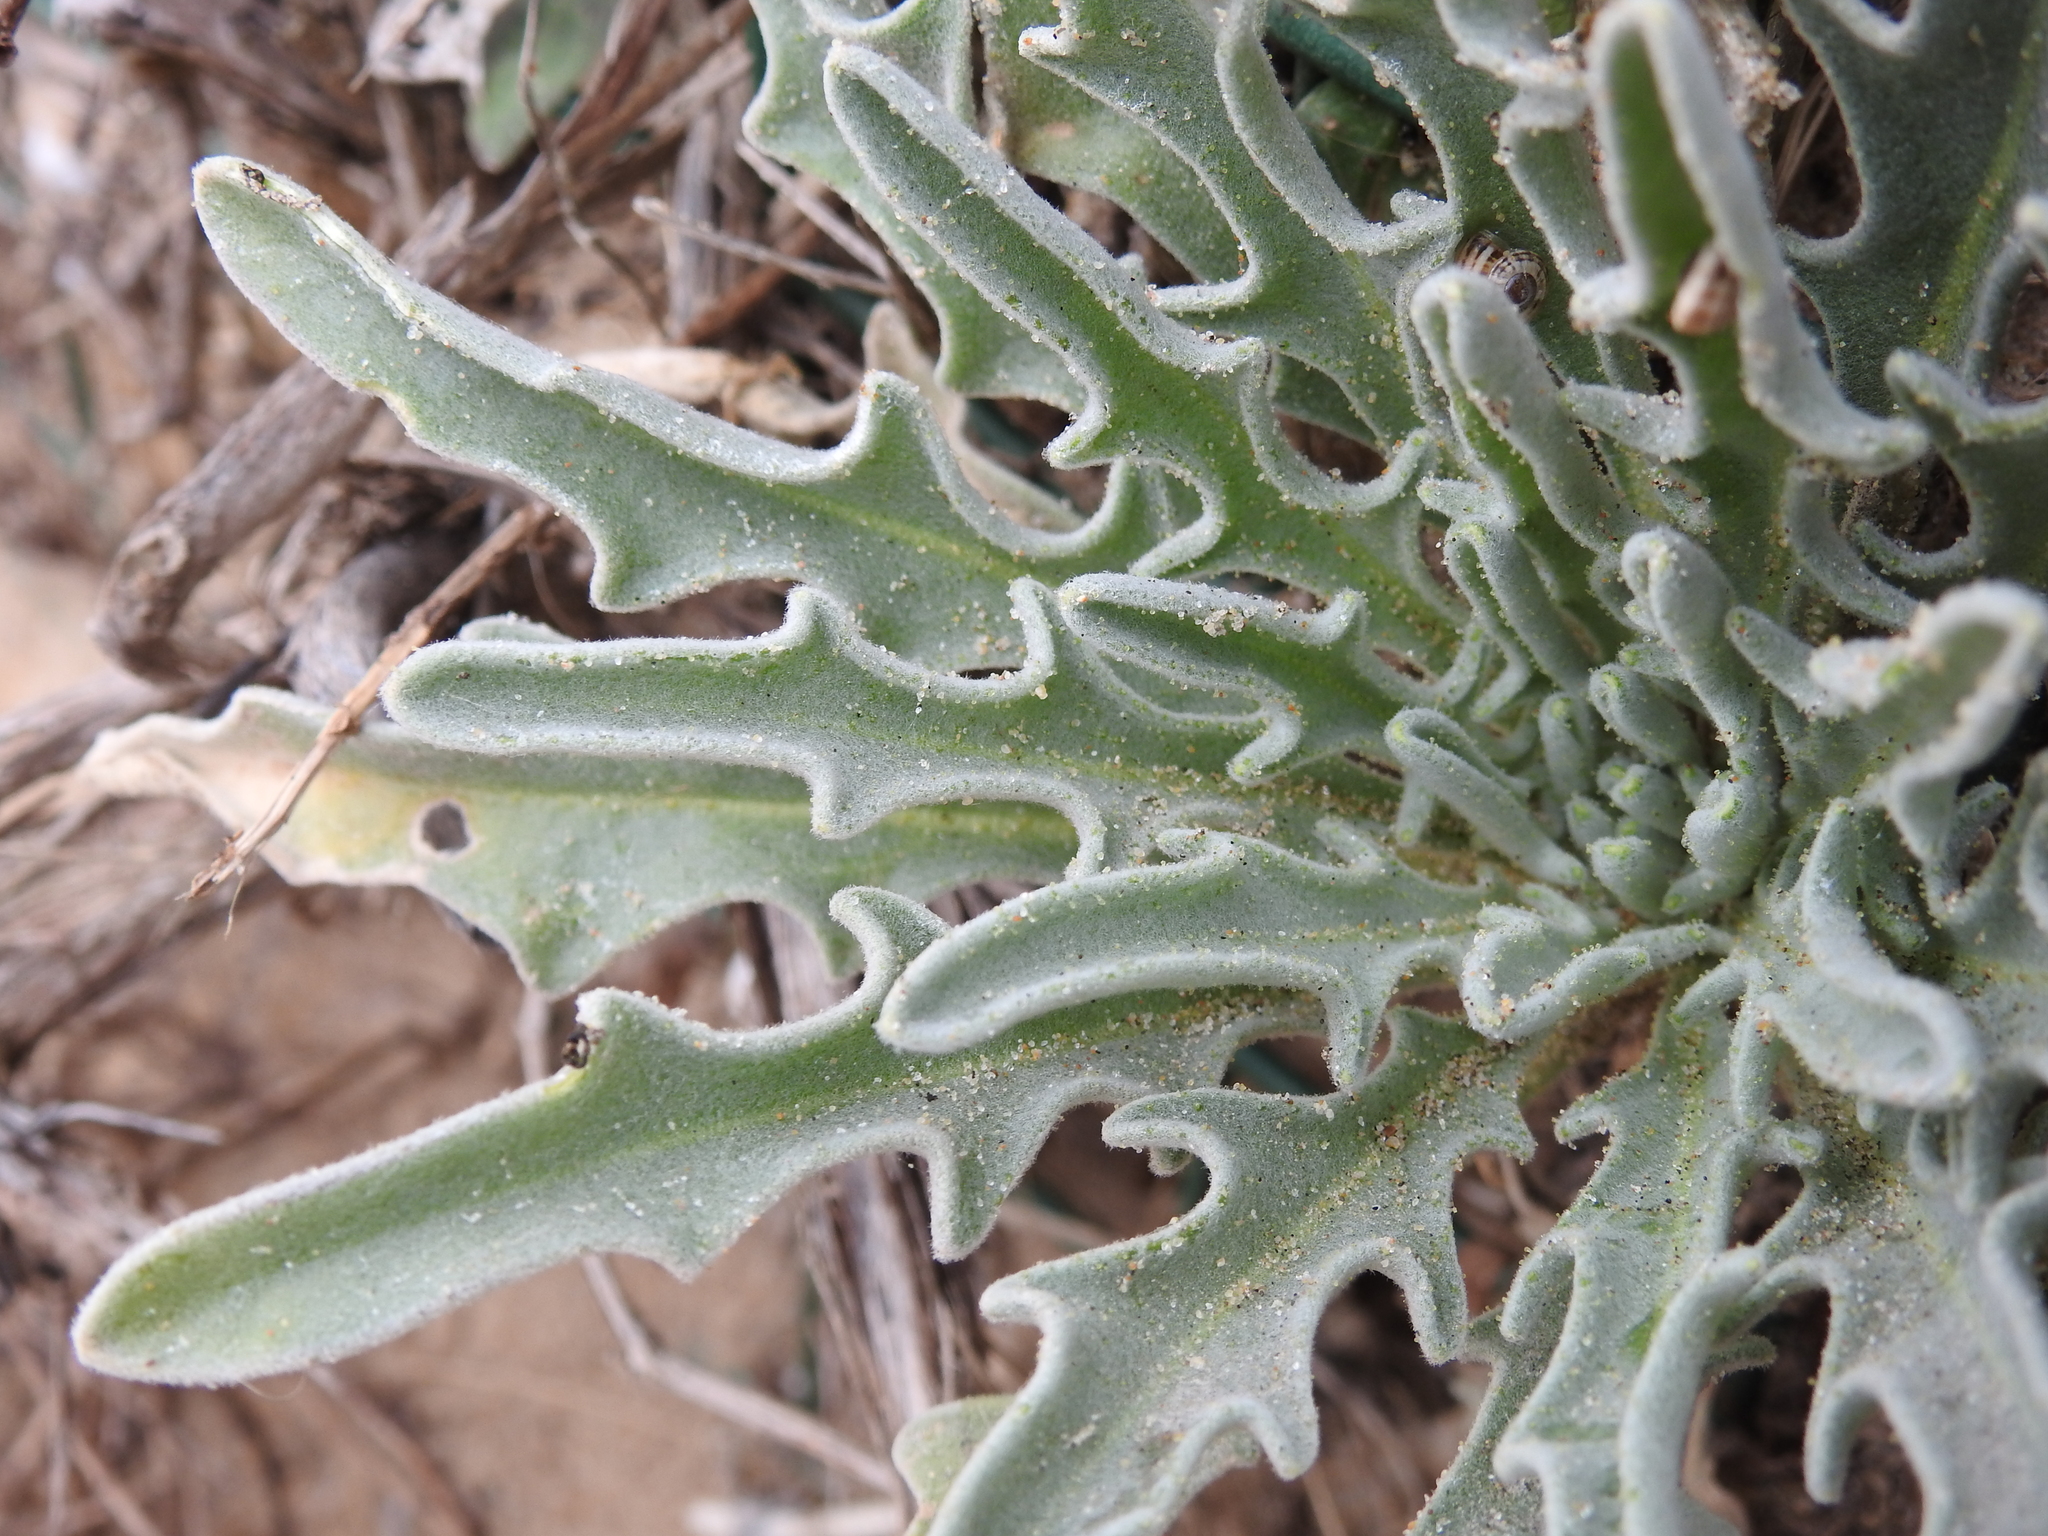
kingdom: Plantae
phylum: Tracheophyta
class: Magnoliopsida
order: Brassicales
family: Brassicaceae
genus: Matthiola
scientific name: Matthiola sinuata
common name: Sea stock
